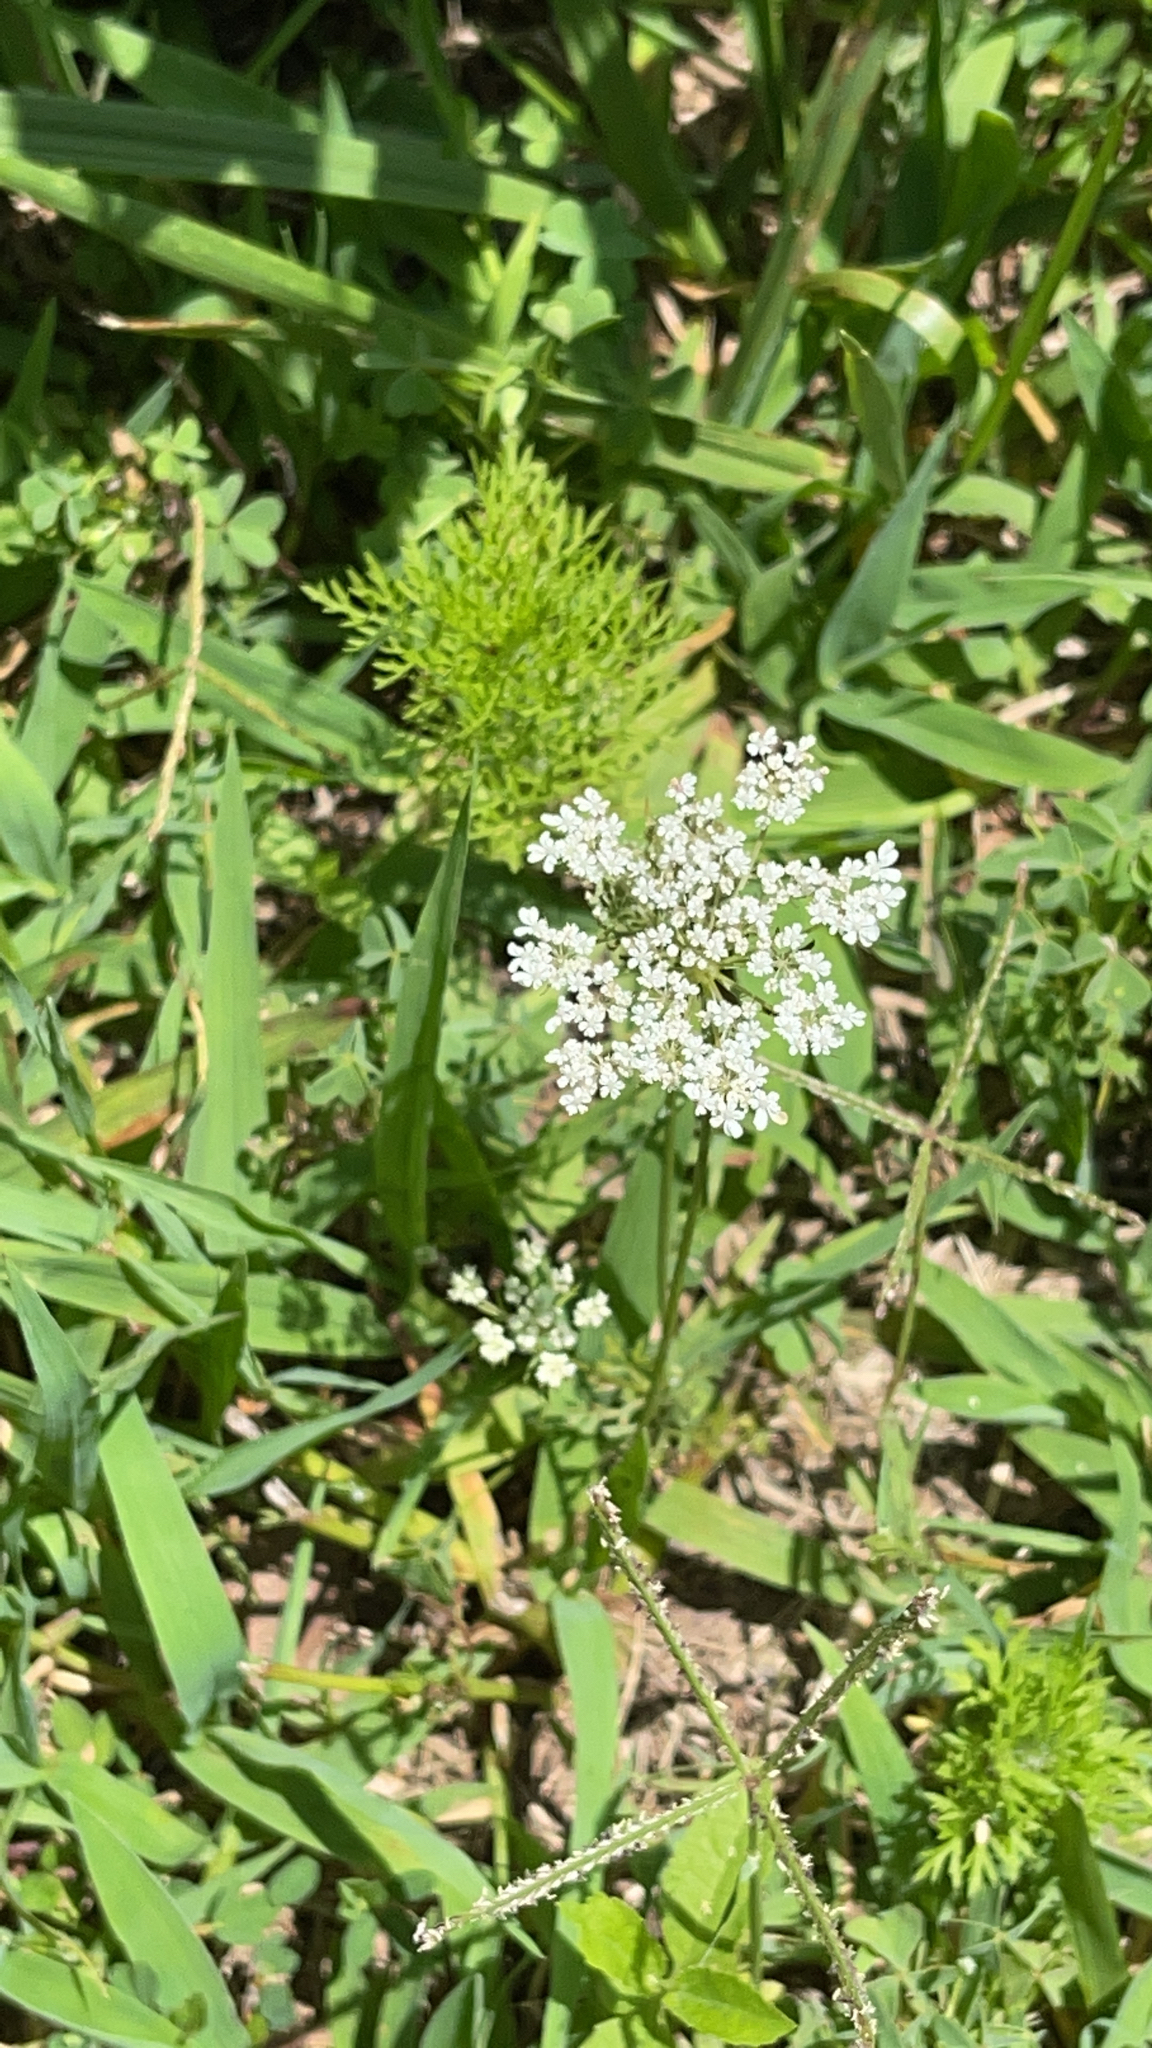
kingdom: Plantae
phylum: Tracheophyta
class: Magnoliopsida
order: Apiales
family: Apiaceae
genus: Daucus
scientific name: Daucus carota
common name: Wild carrot
